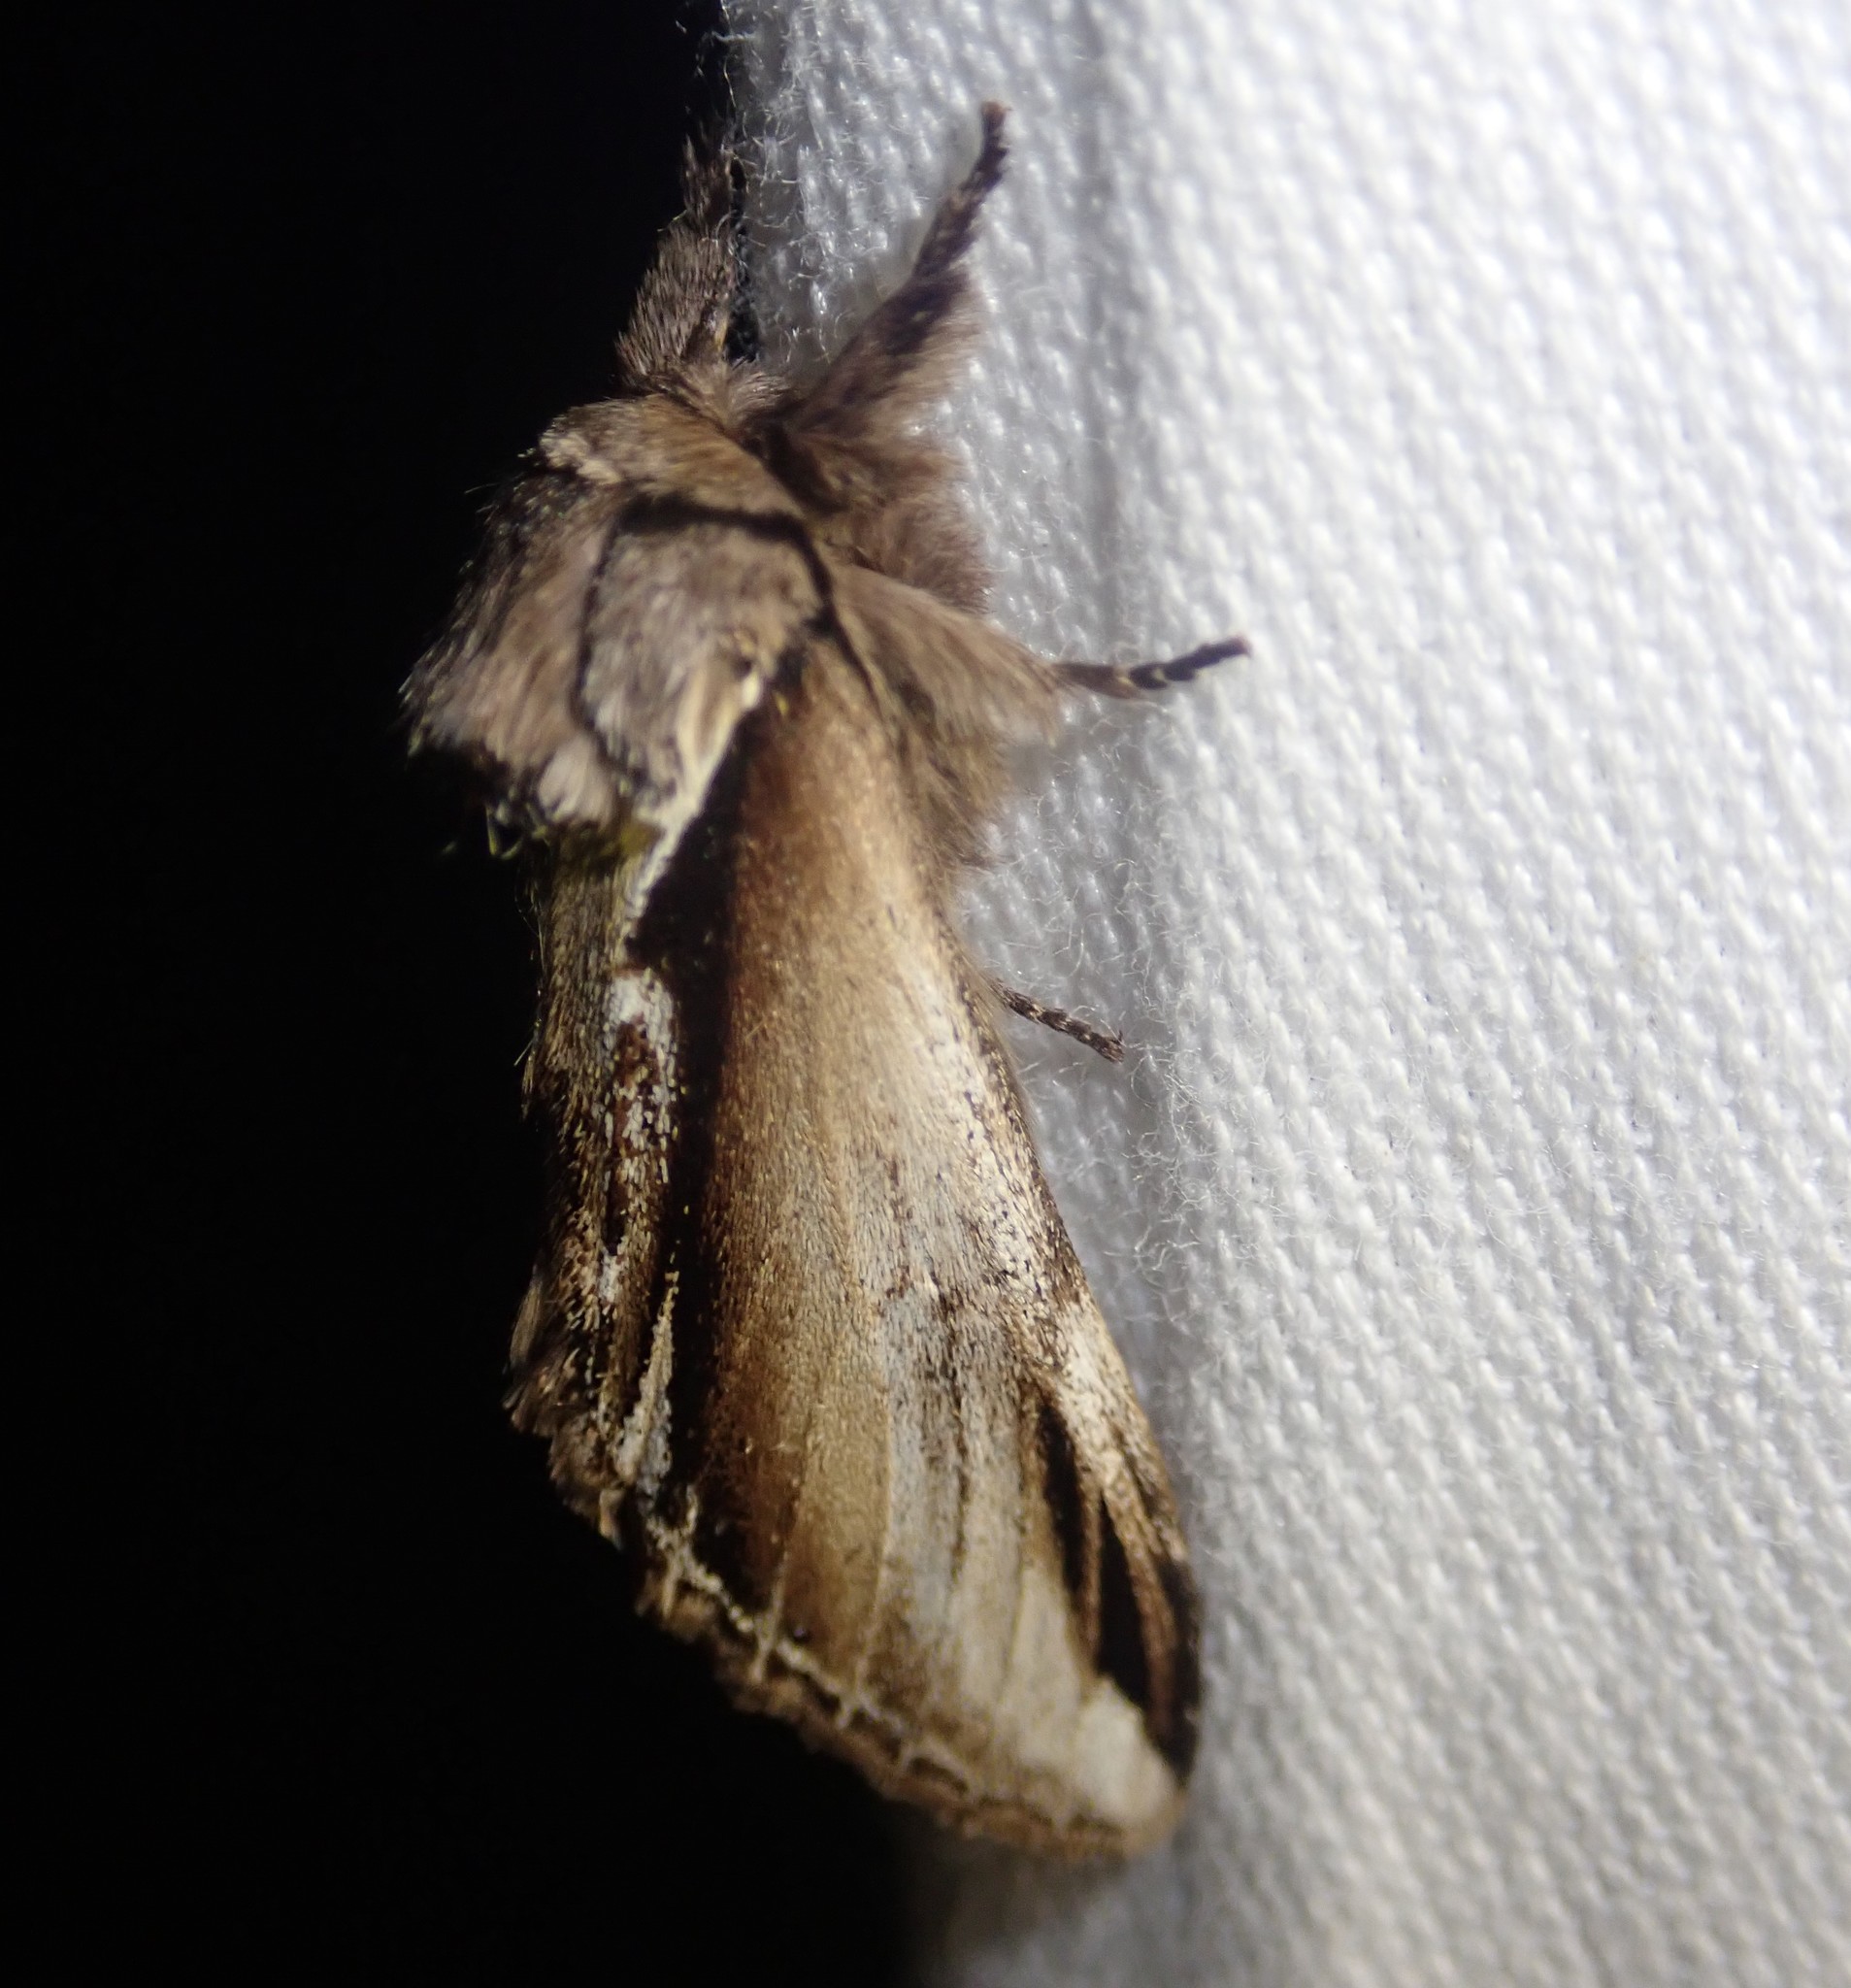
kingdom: Animalia
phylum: Arthropoda
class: Insecta
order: Lepidoptera
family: Notodontidae
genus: Pheosia
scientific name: Pheosia gnoma
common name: Lesser swallow prominent
